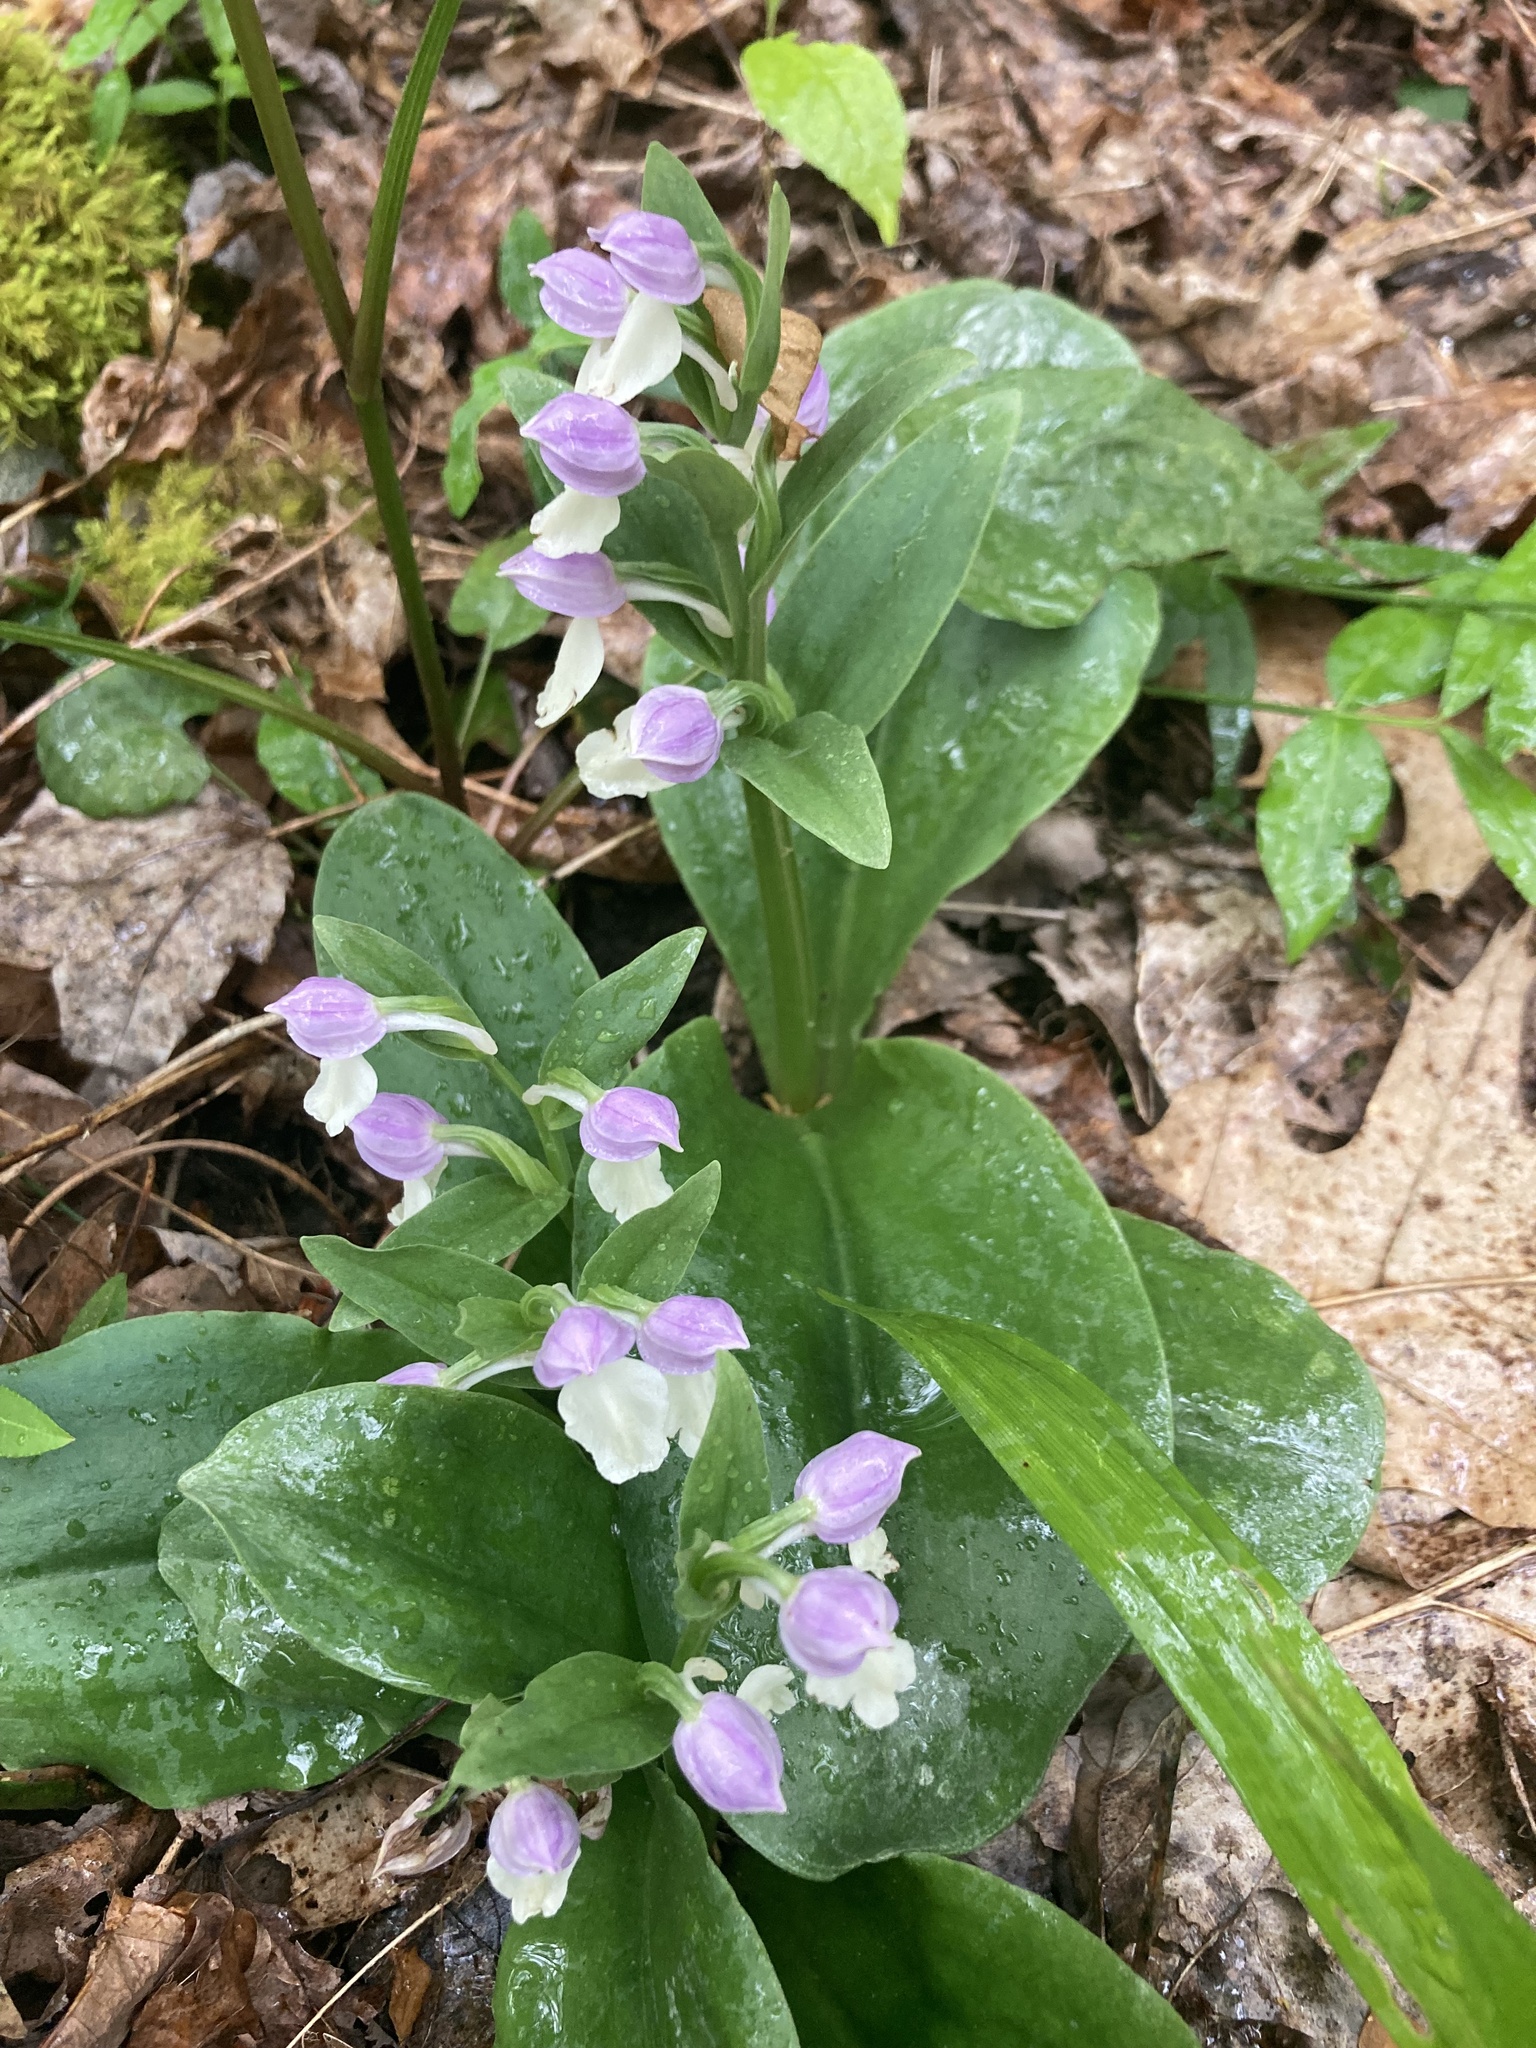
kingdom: Plantae
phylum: Tracheophyta
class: Liliopsida
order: Asparagales
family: Orchidaceae
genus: Galearis
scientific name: Galearis spectabilis
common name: Purple-hooded orchis
